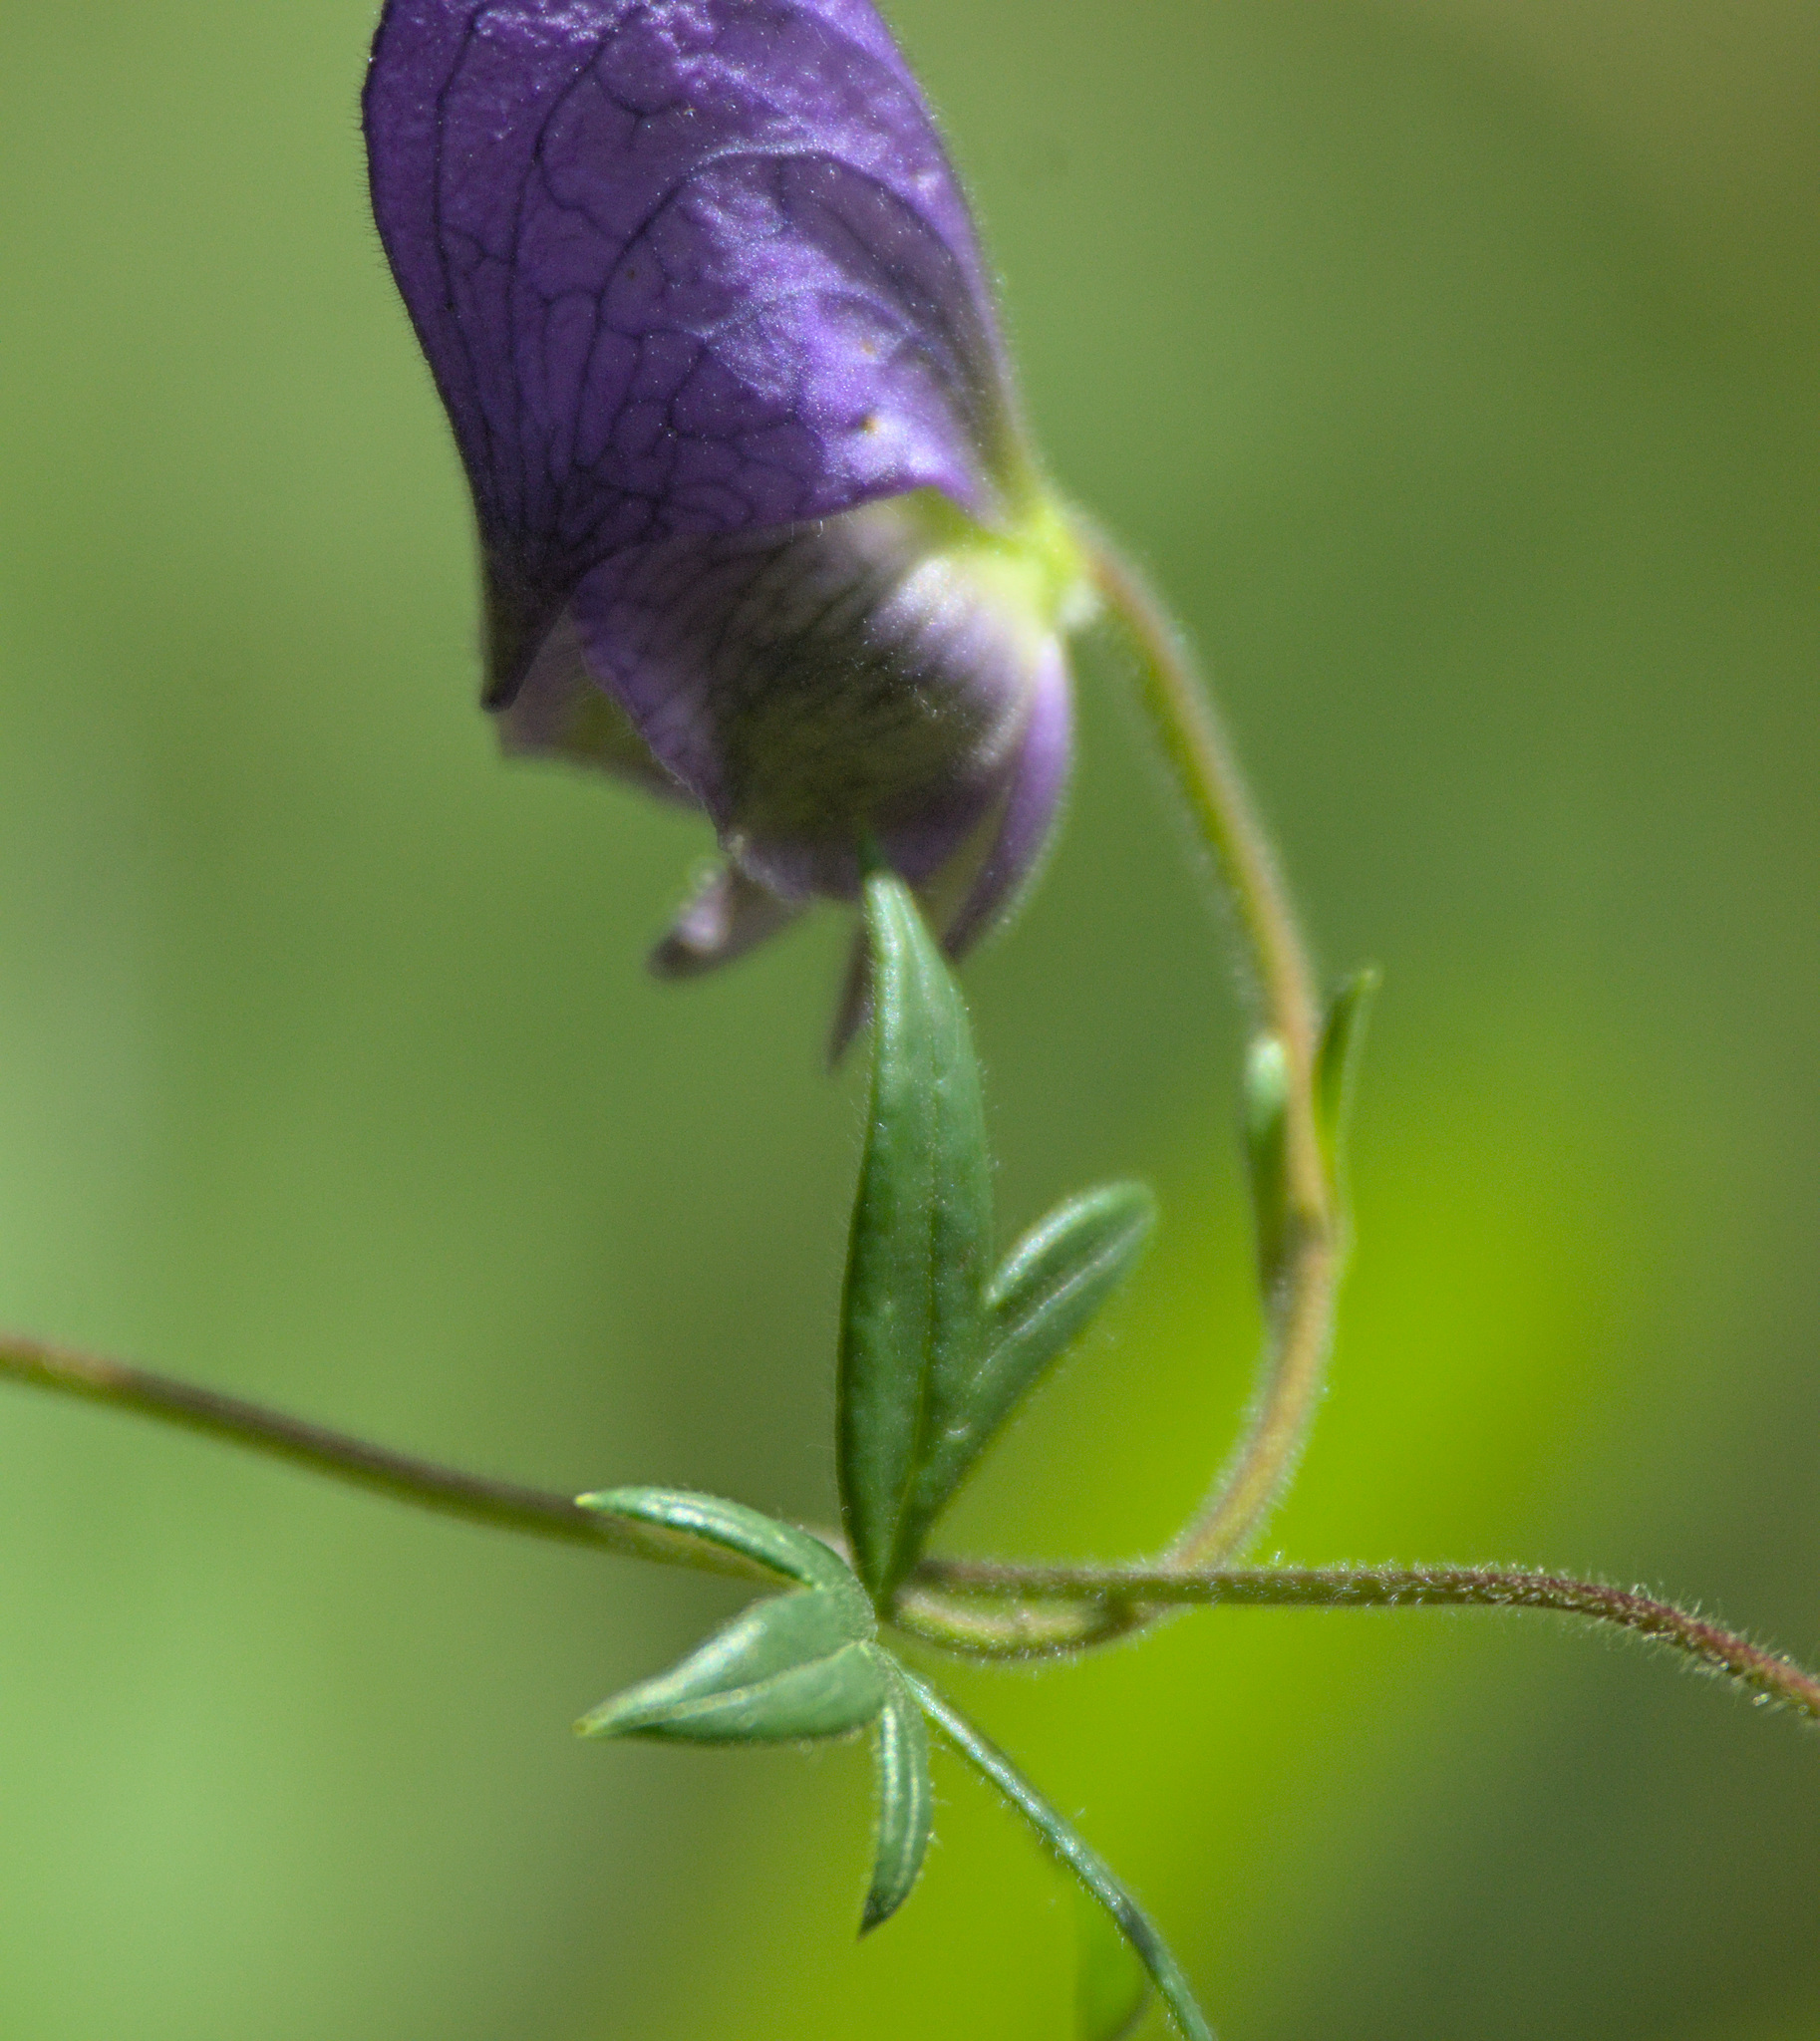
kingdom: Plantae
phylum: Tracheophyta
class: Magnoliopsida
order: Ranunculales
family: Ranunculaceae
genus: Aconitum
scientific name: Aconitum volubile
